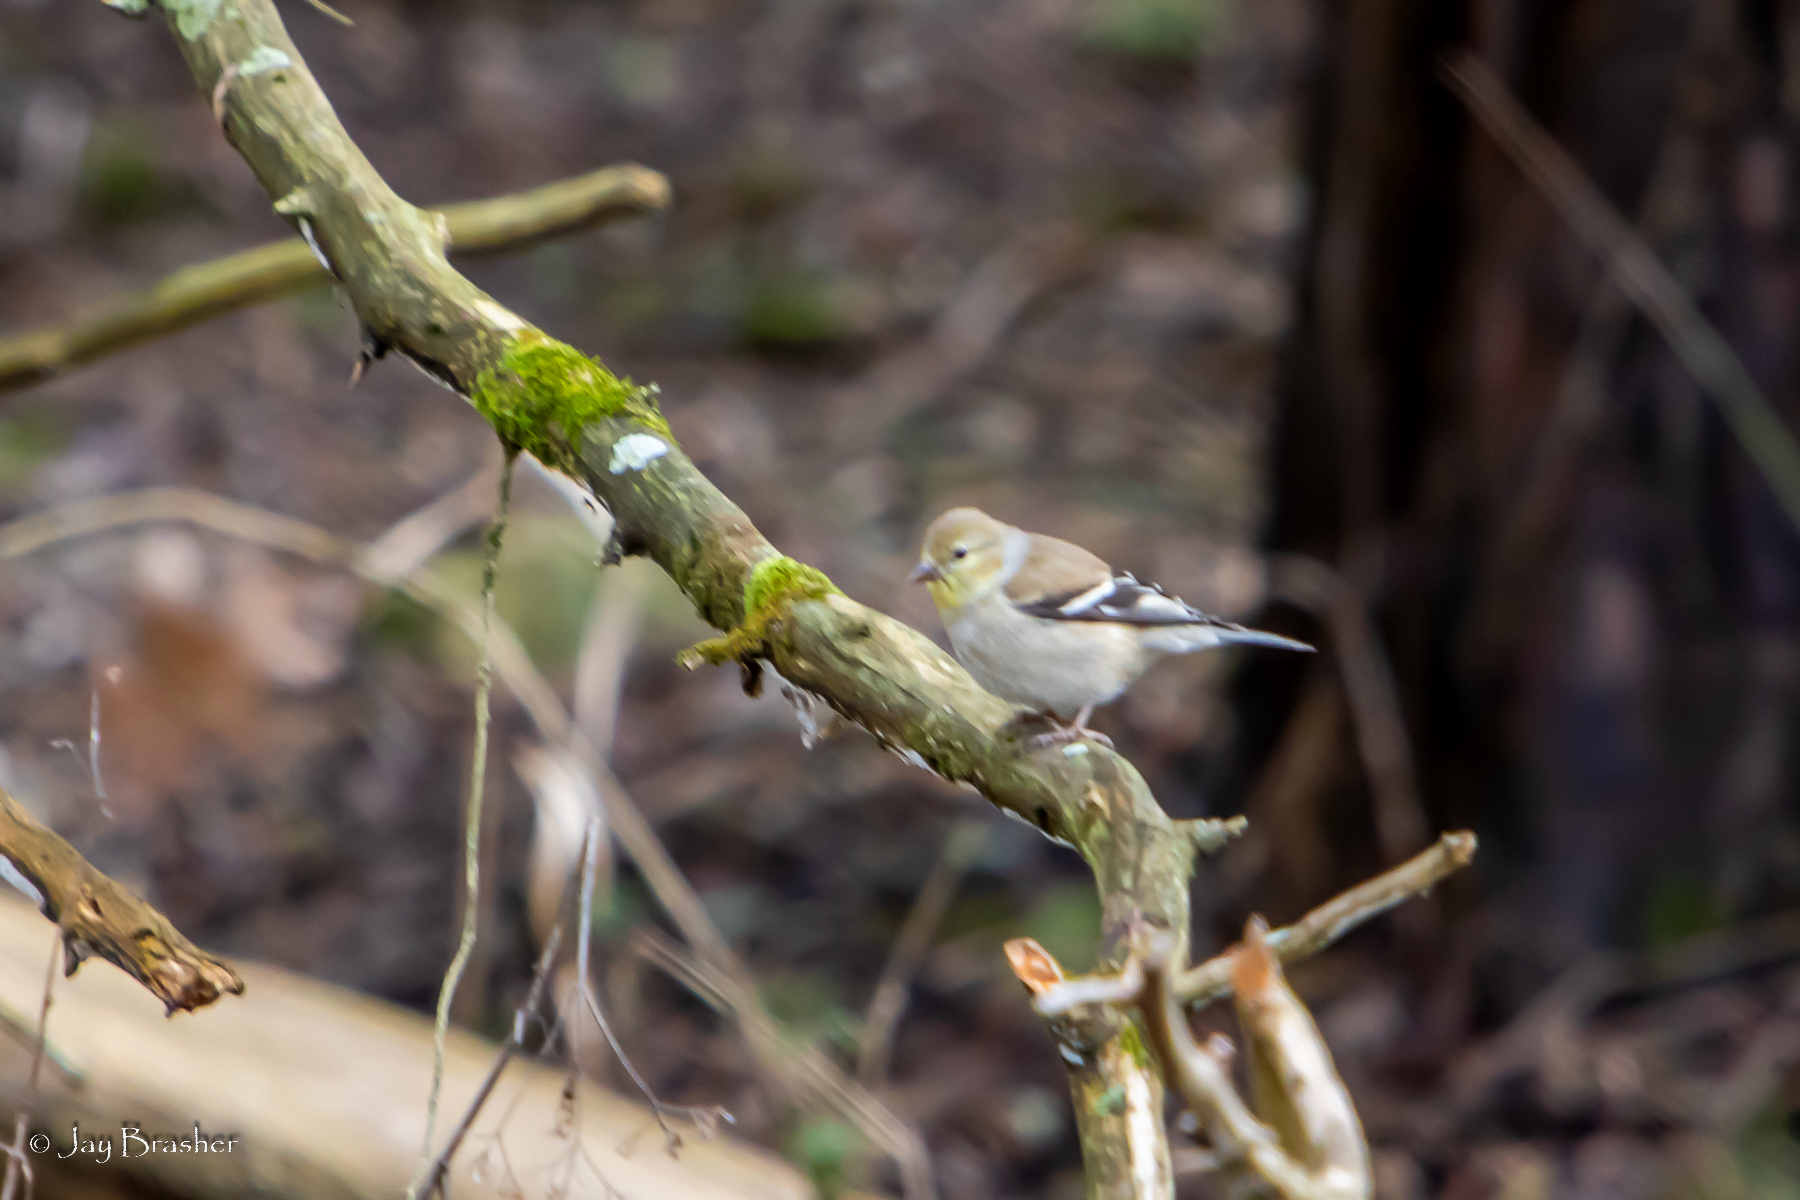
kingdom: Animalia
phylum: Chordata
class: Aves
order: Passeriformes
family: Fringillidae
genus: Spinus
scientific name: Spinus tristis
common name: American goldfinch
